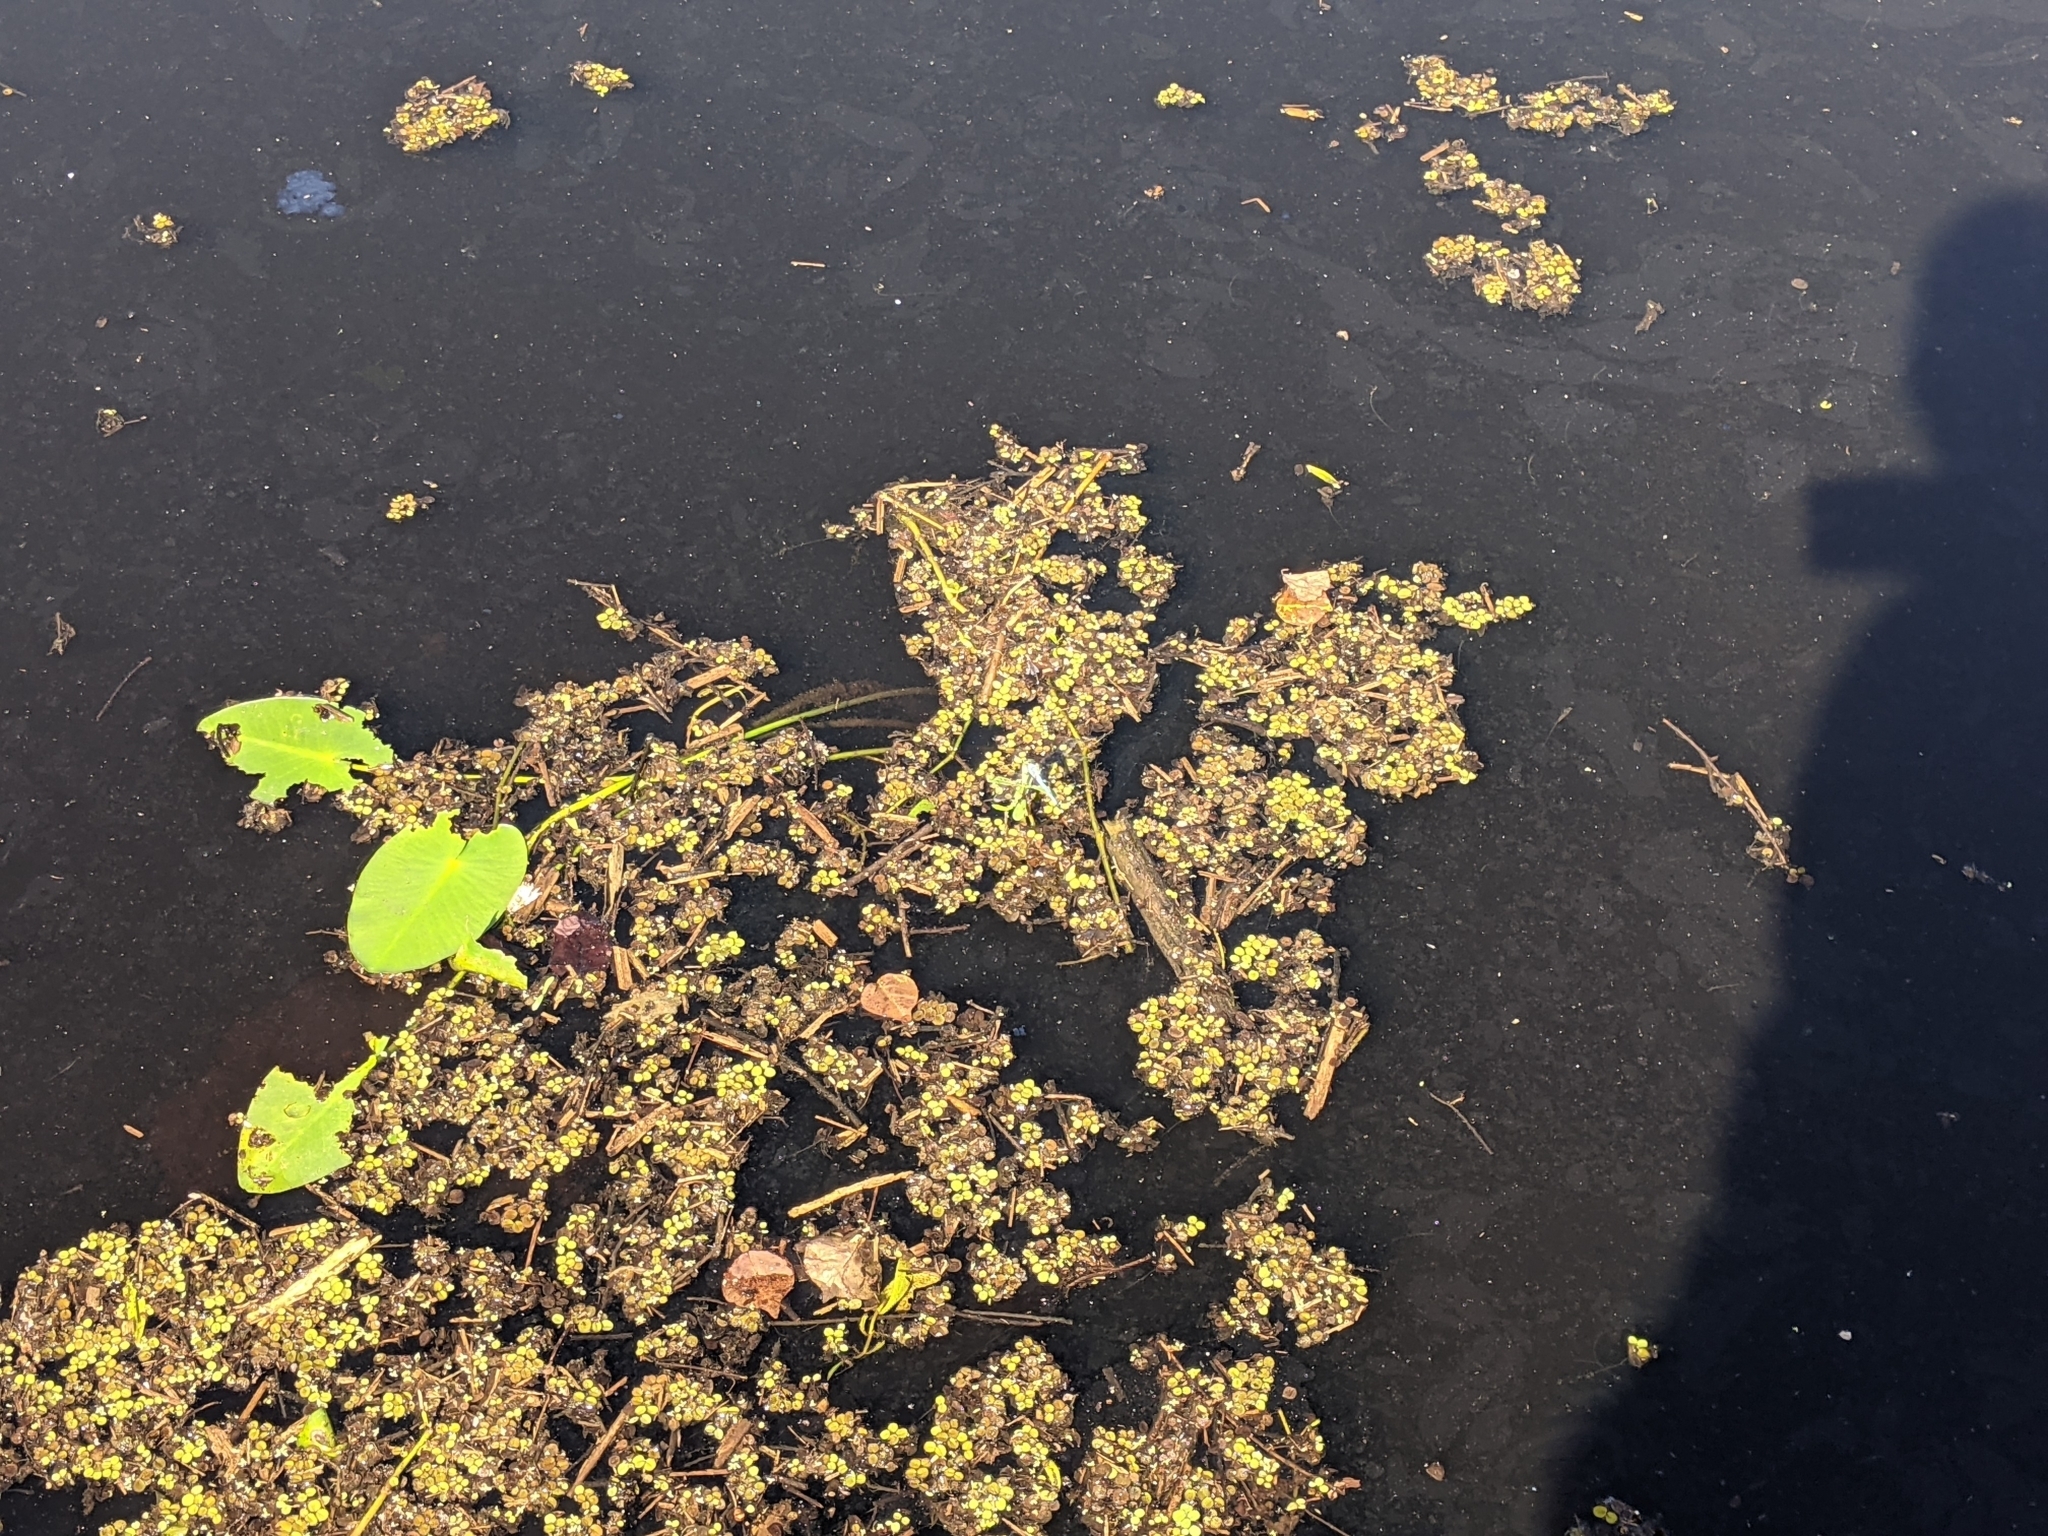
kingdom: Plantae
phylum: Tracheophyta
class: Polypodiopsida
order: Salviniales
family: Salviniaceae
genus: Salvinia
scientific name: Salvinia minima
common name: Water spangles
